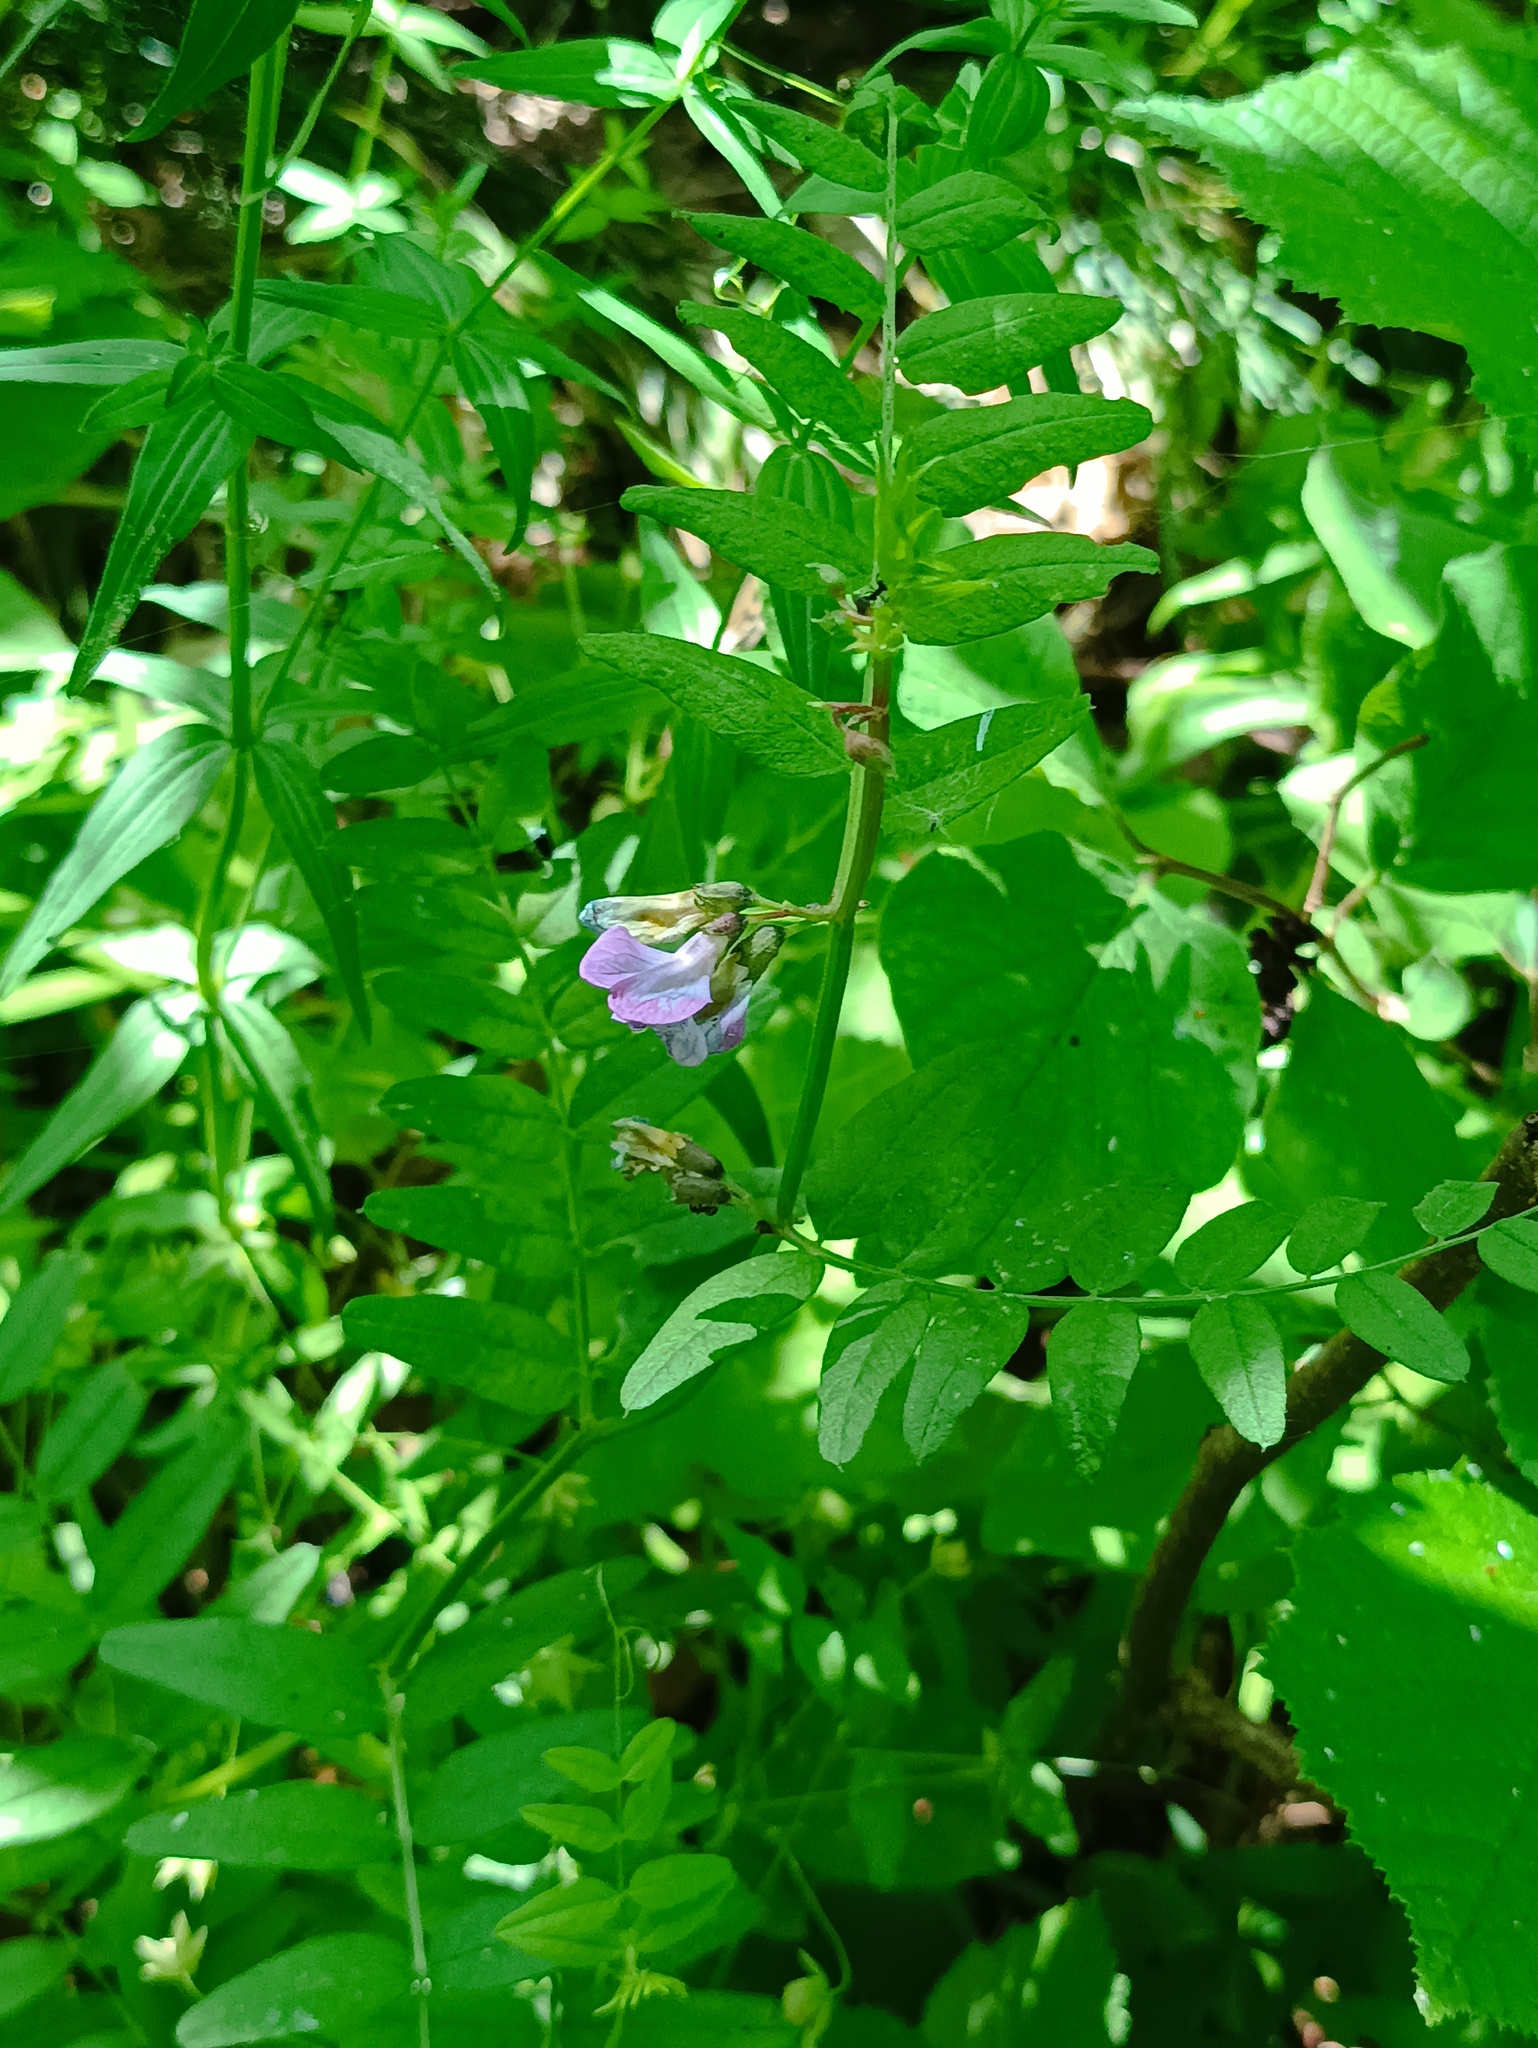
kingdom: Plantae
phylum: Tracheophyta
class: Magnoliopsida
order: Fabales
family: Fabaceae
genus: Vicia
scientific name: Vicia sepium
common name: Bush vetch
